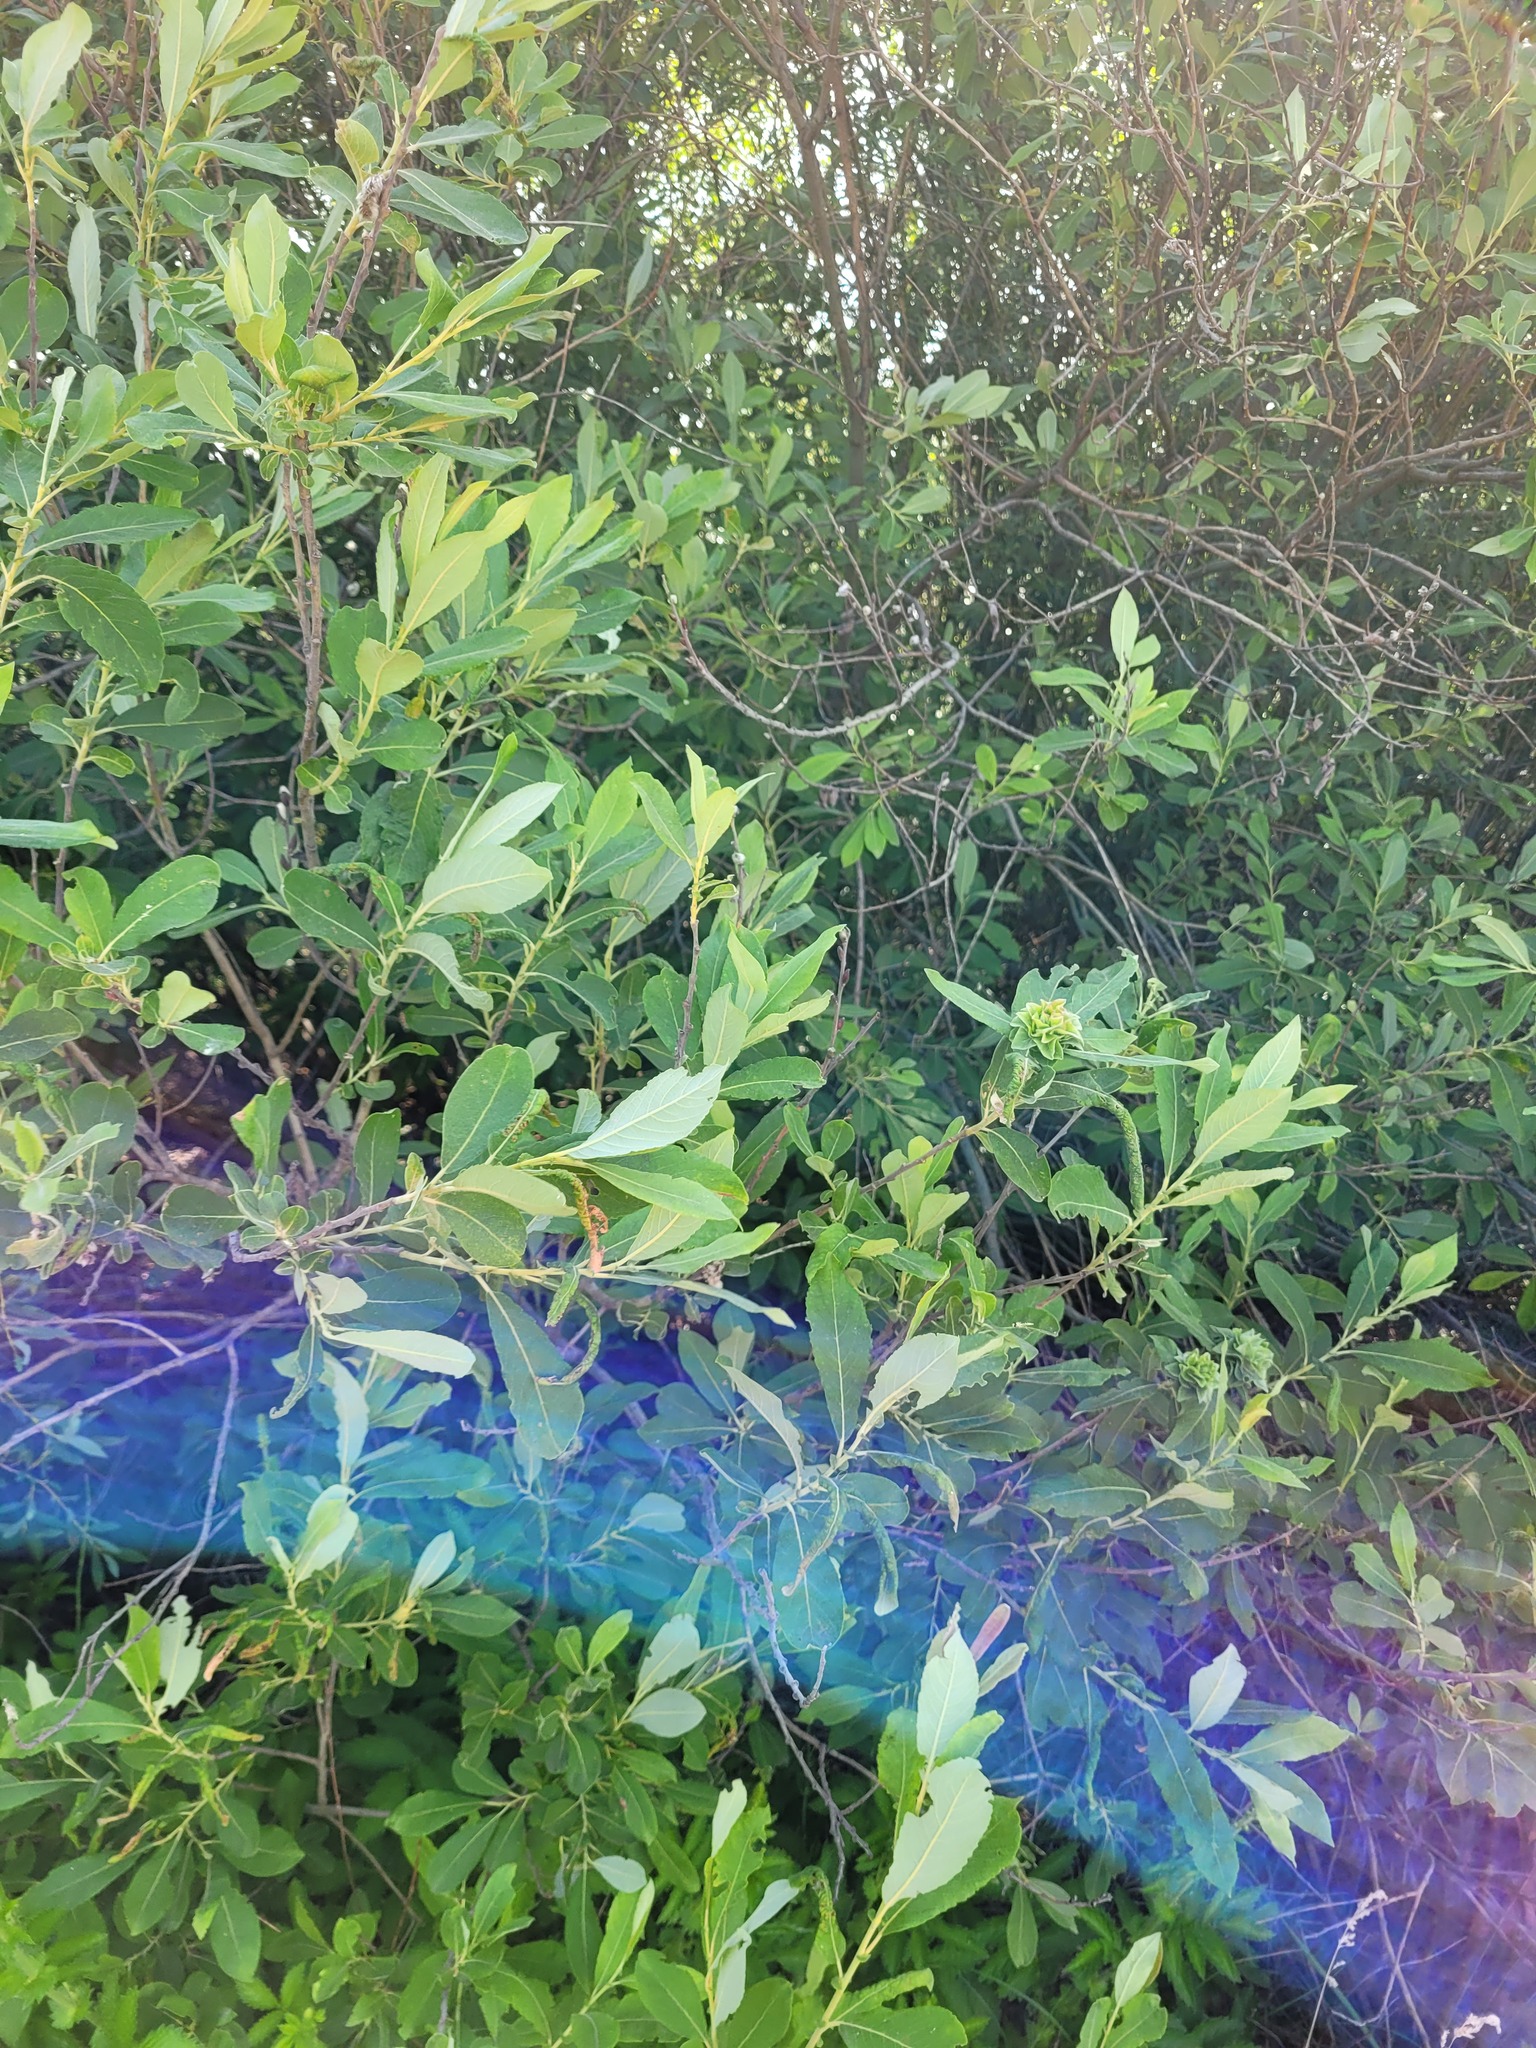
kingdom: Plantae
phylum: Tracheophyta
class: Magnoliopsida
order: Malpighiales
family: Salicaceae
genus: Salix
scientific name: Salix cinerea
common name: Common sallow
